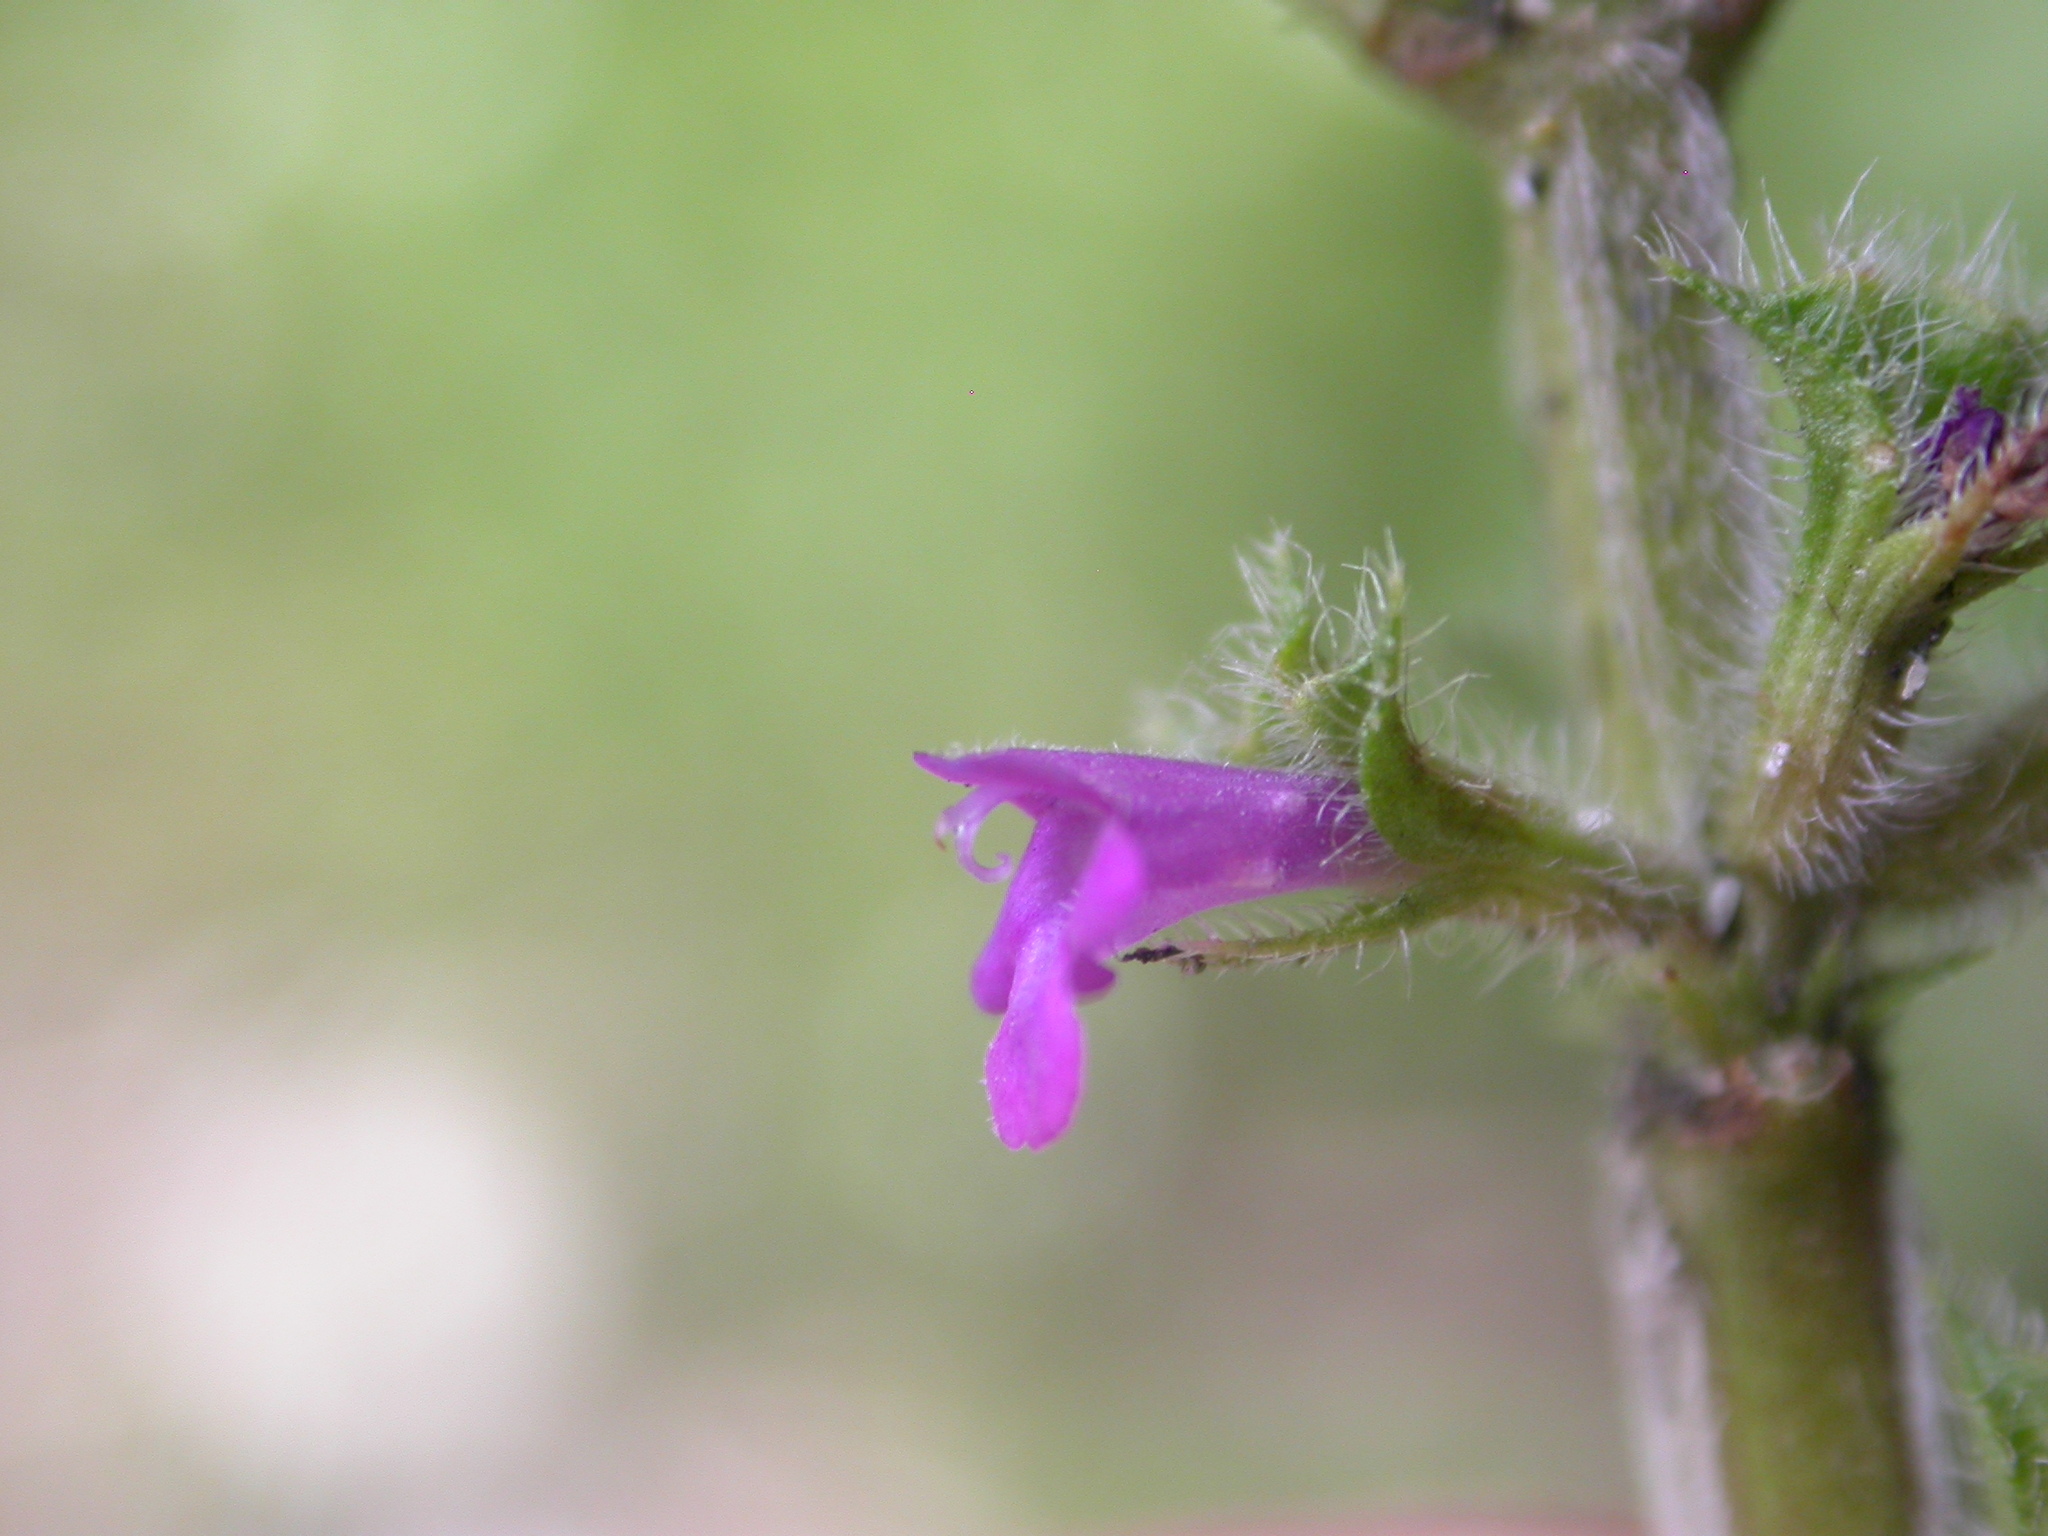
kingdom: Plantae
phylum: Tracheophyta
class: Magnoliopsida
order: Lamiales
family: Lamiaceae
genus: Clinopodium
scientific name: Clinopodium acinos
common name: Basil thyme
